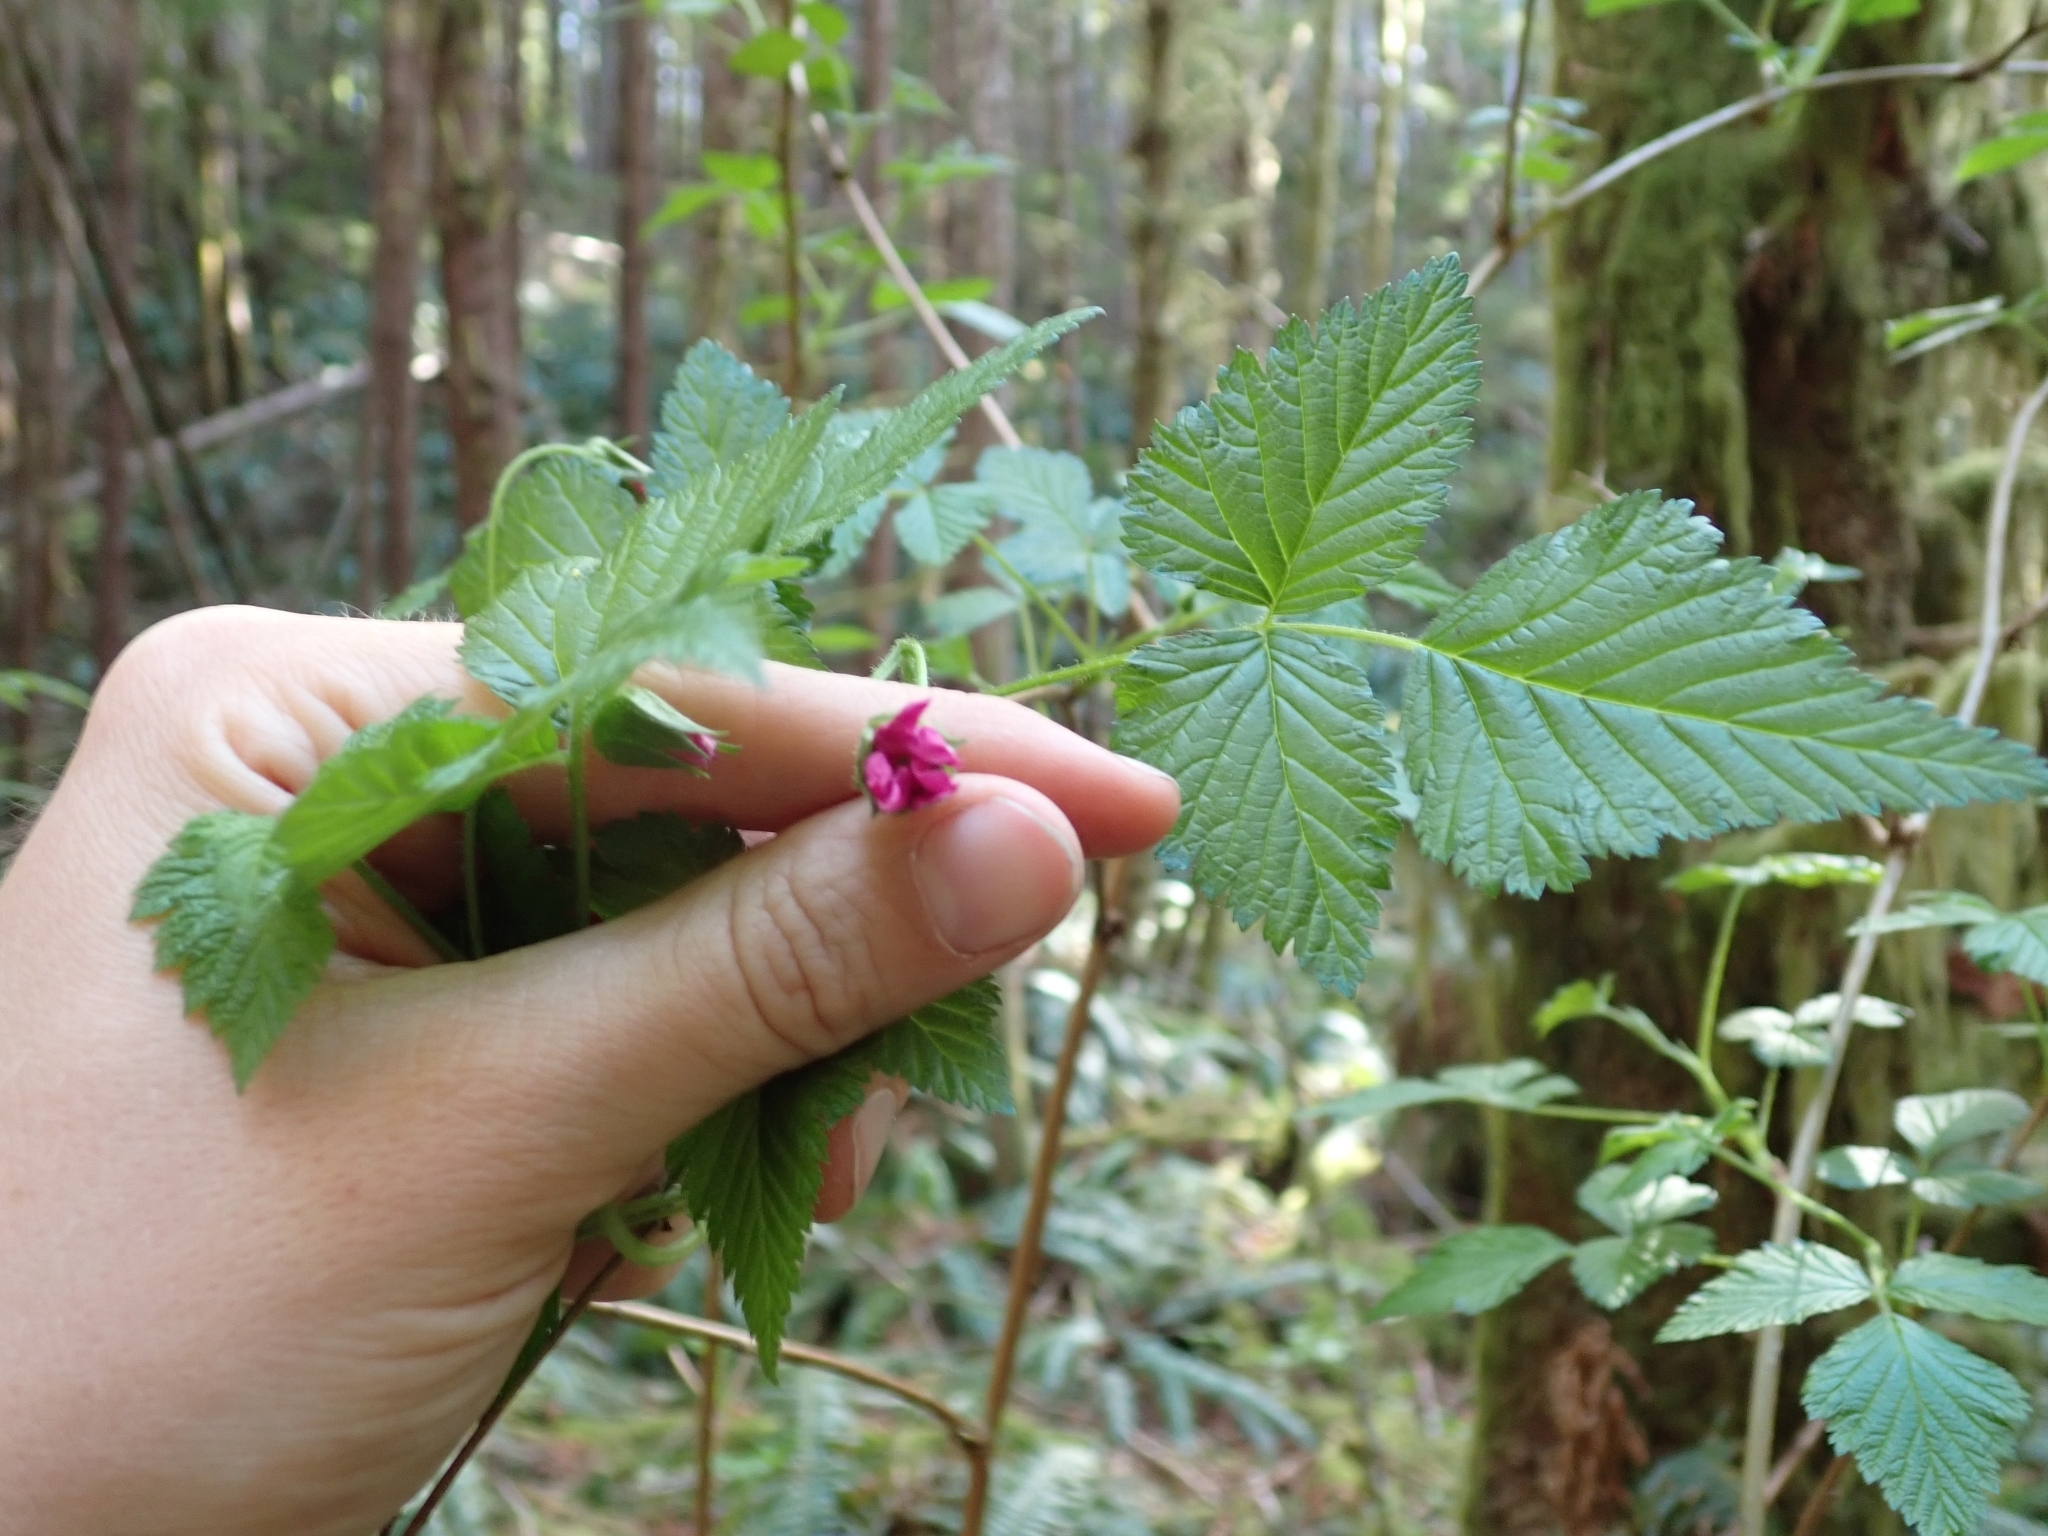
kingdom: Plantae
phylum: Tracheophyta
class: Magnoliopsida
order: Rosales
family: Rosaceae
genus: Rubus
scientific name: Rubus spectabilis
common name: Salmonberry
